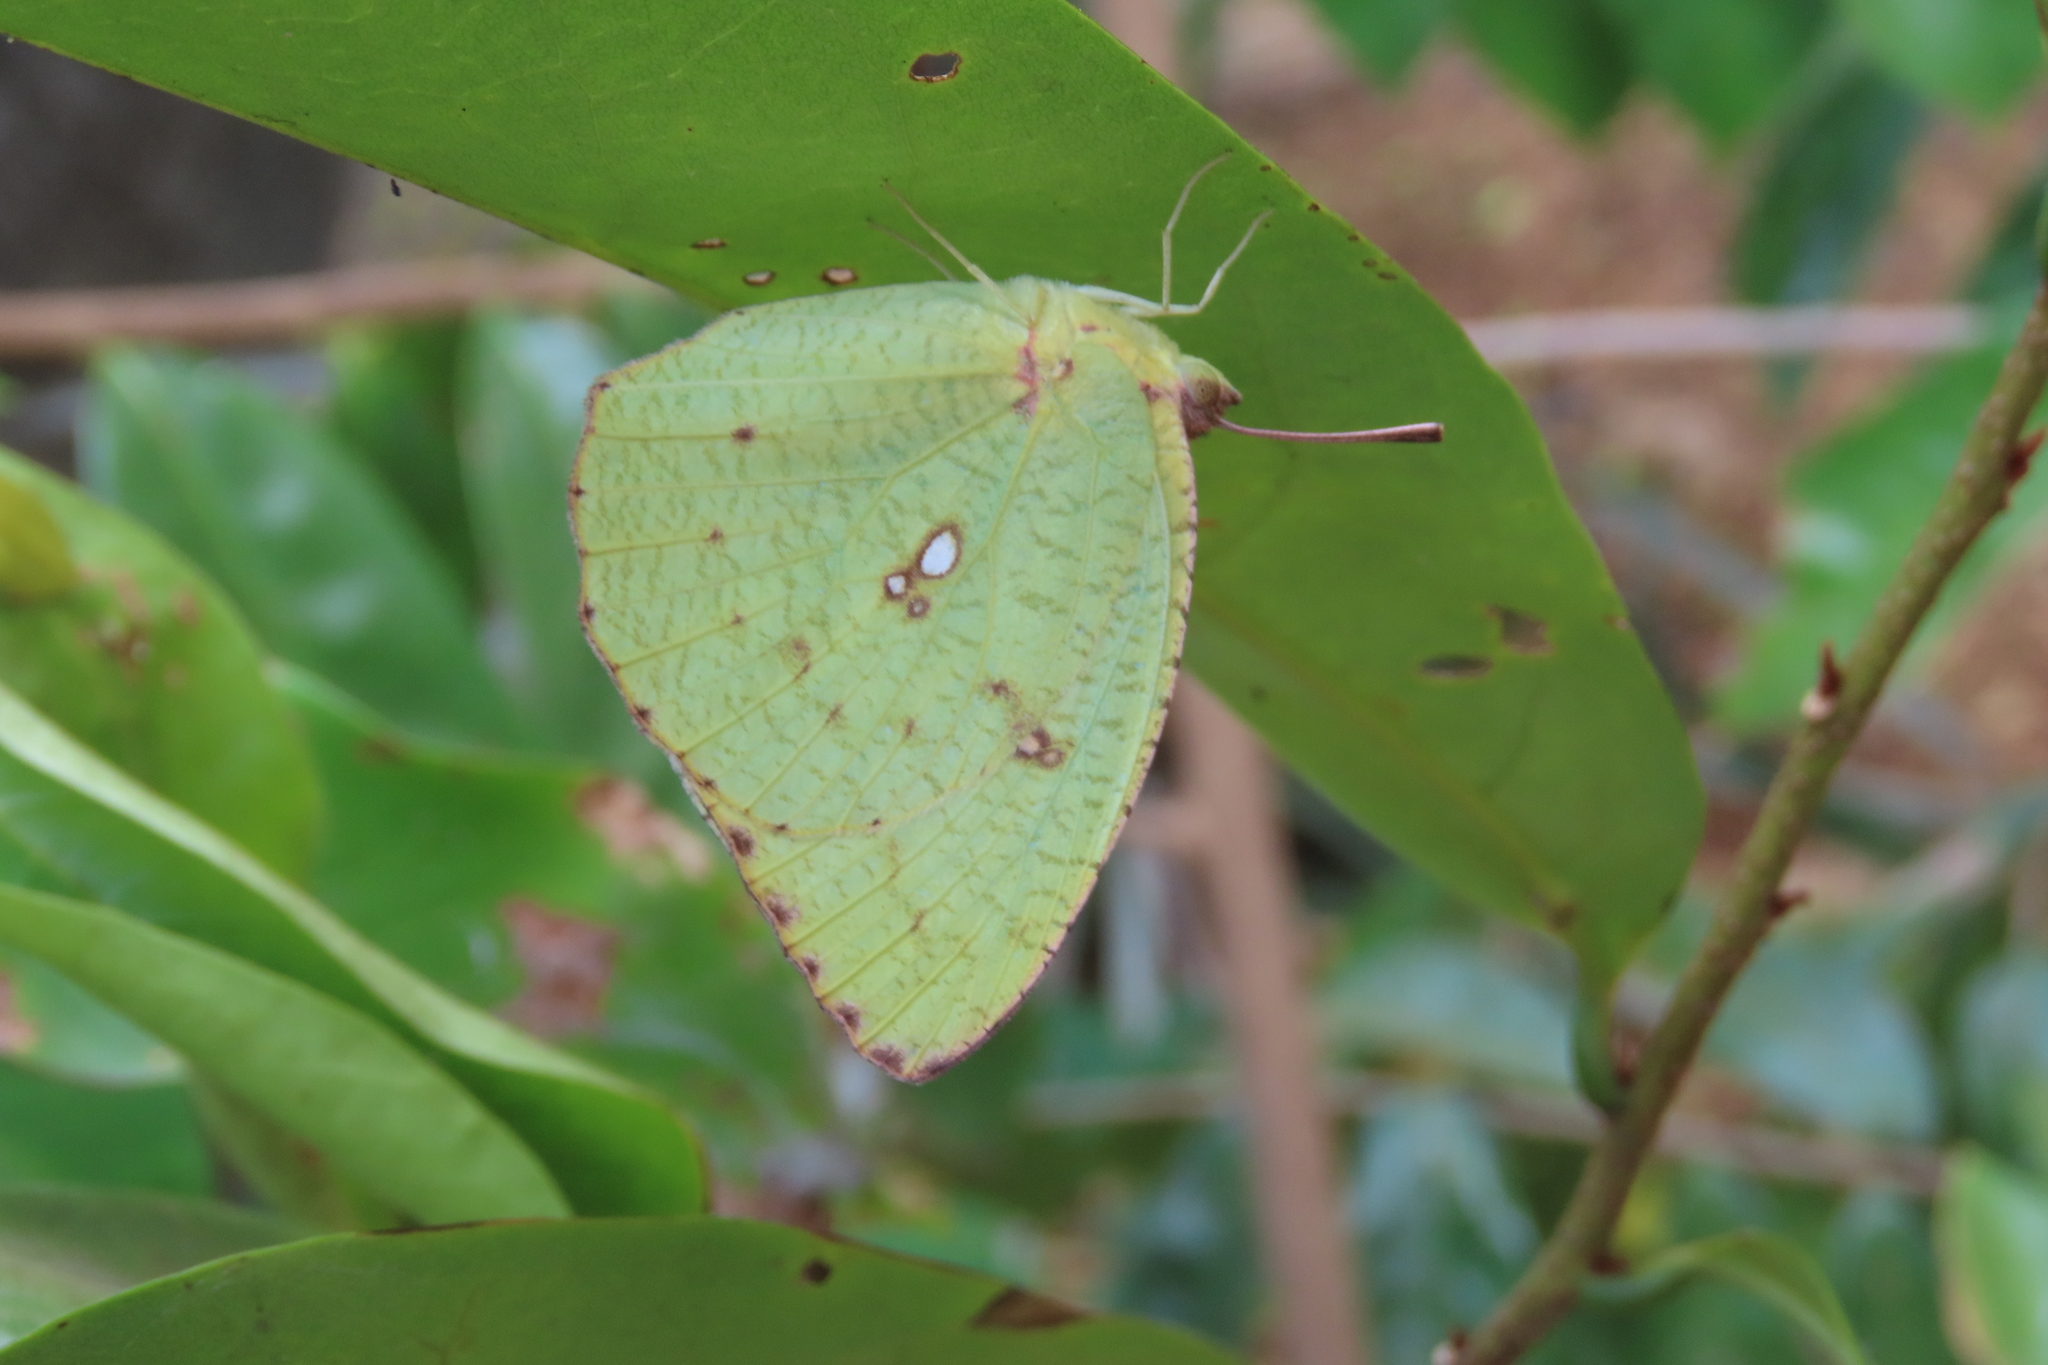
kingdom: Animalia
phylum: Arthropoda
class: Insecta
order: Lepidoptera
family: Pieridae
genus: Catopsilia
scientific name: Catopsilia pyranthe
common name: Mottled emigrant
